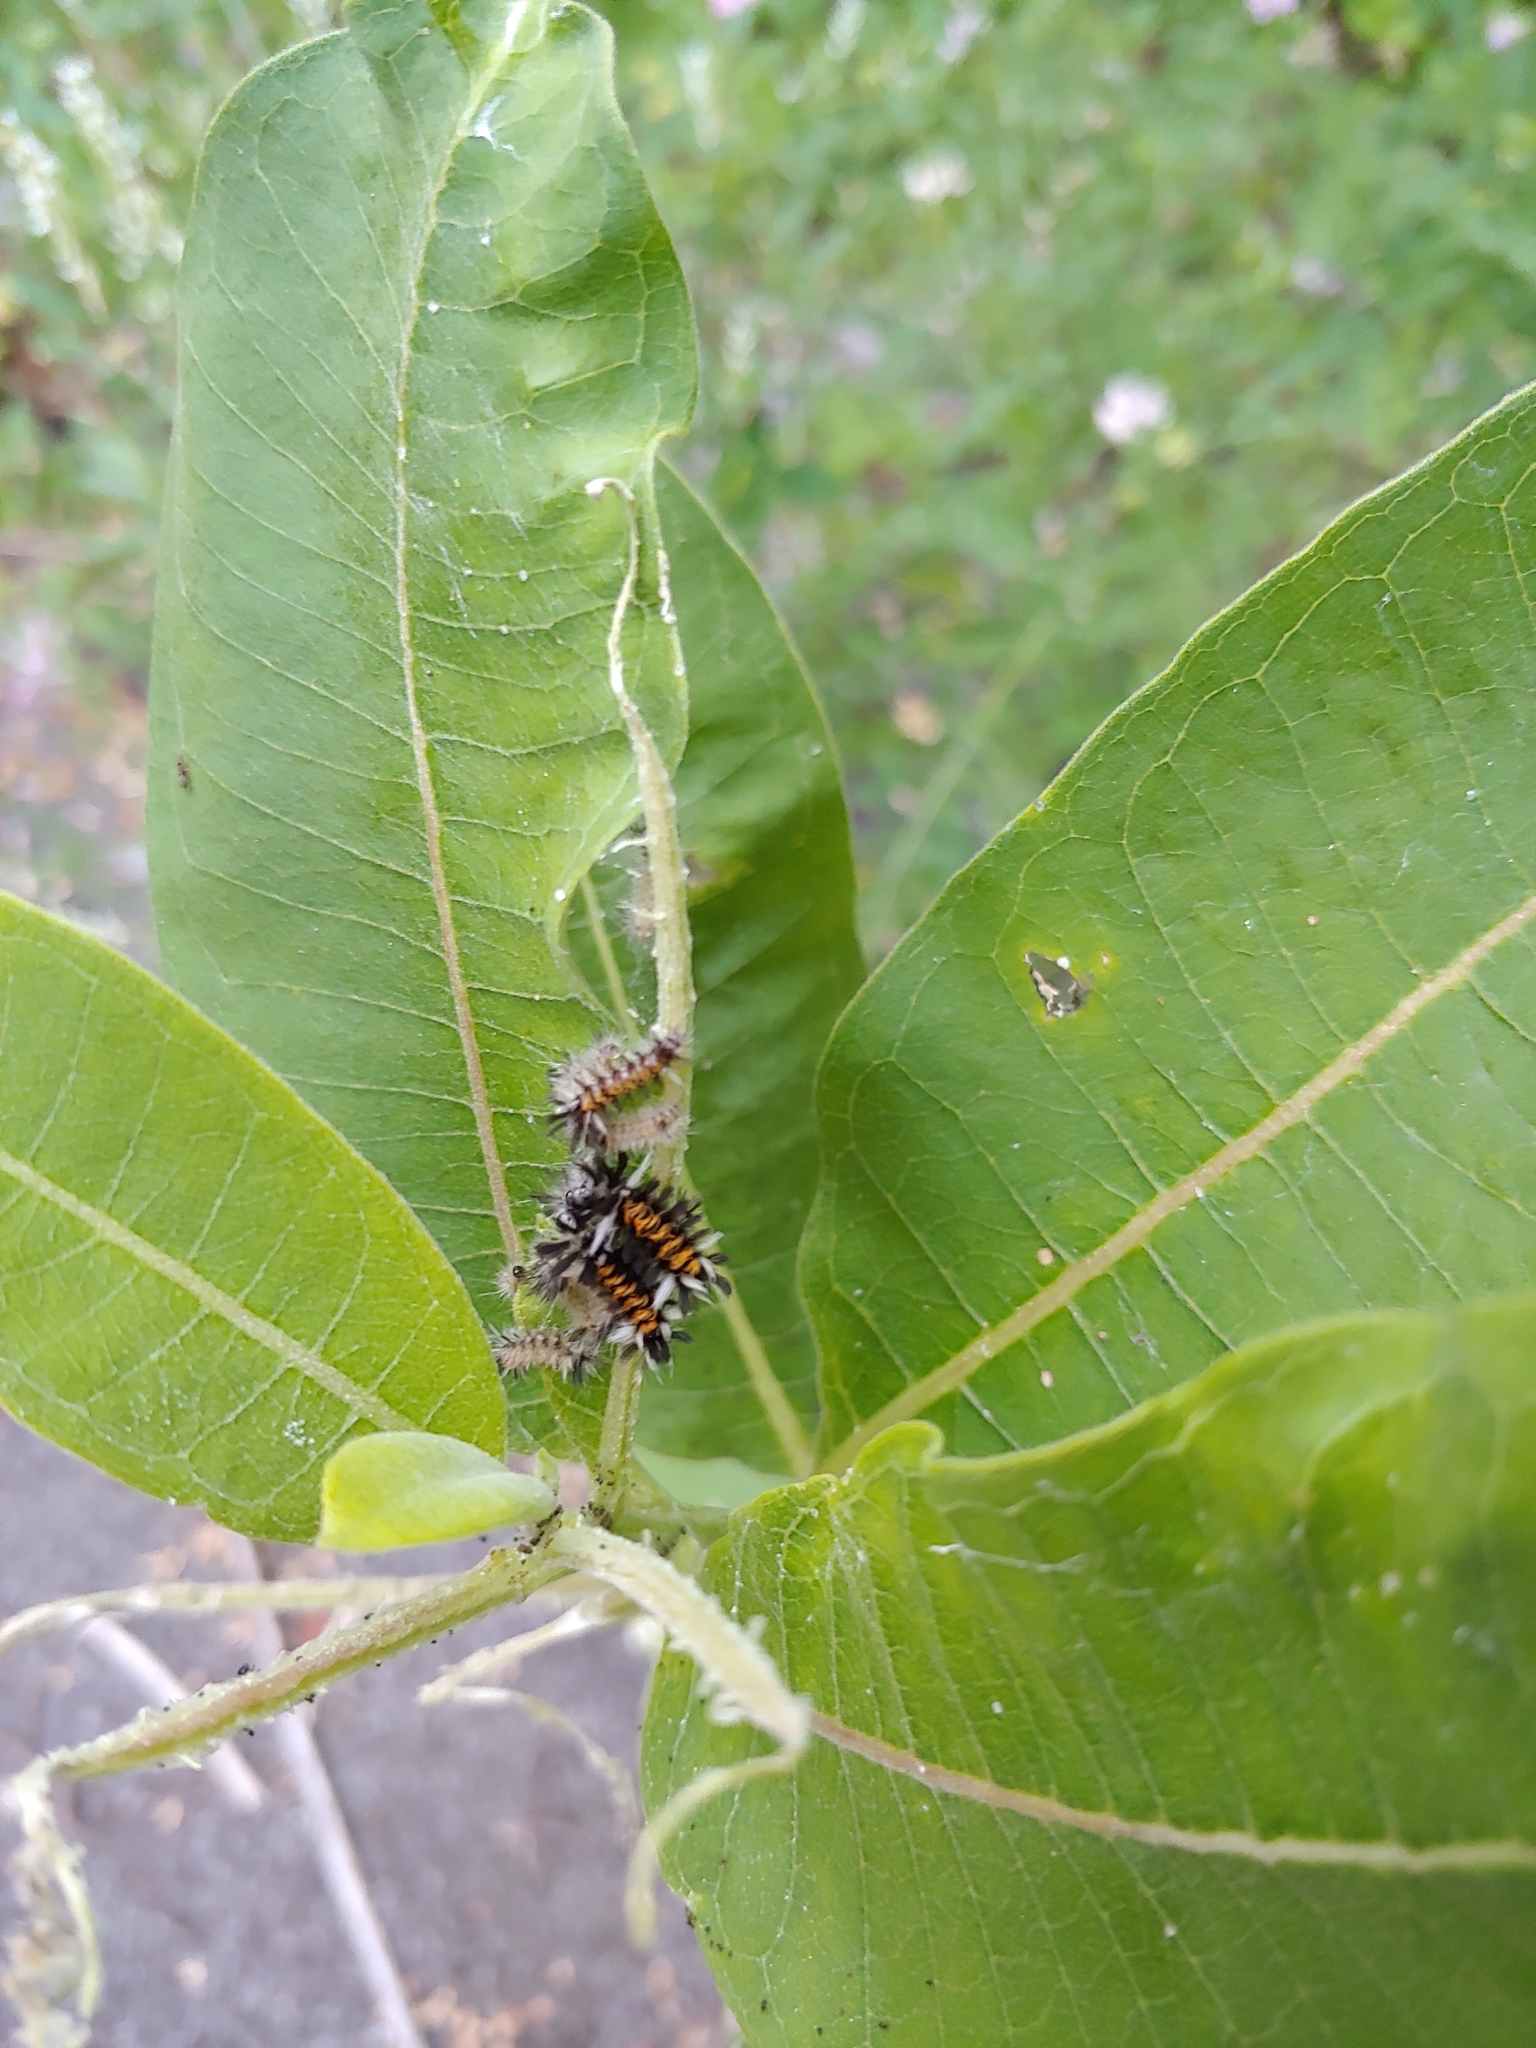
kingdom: Animalia
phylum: Arthropoda
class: Insecta
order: Lepidoptera
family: Erebidae
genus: Euchaetes
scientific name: Euchaetes egle
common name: Milkweed tussock moth
